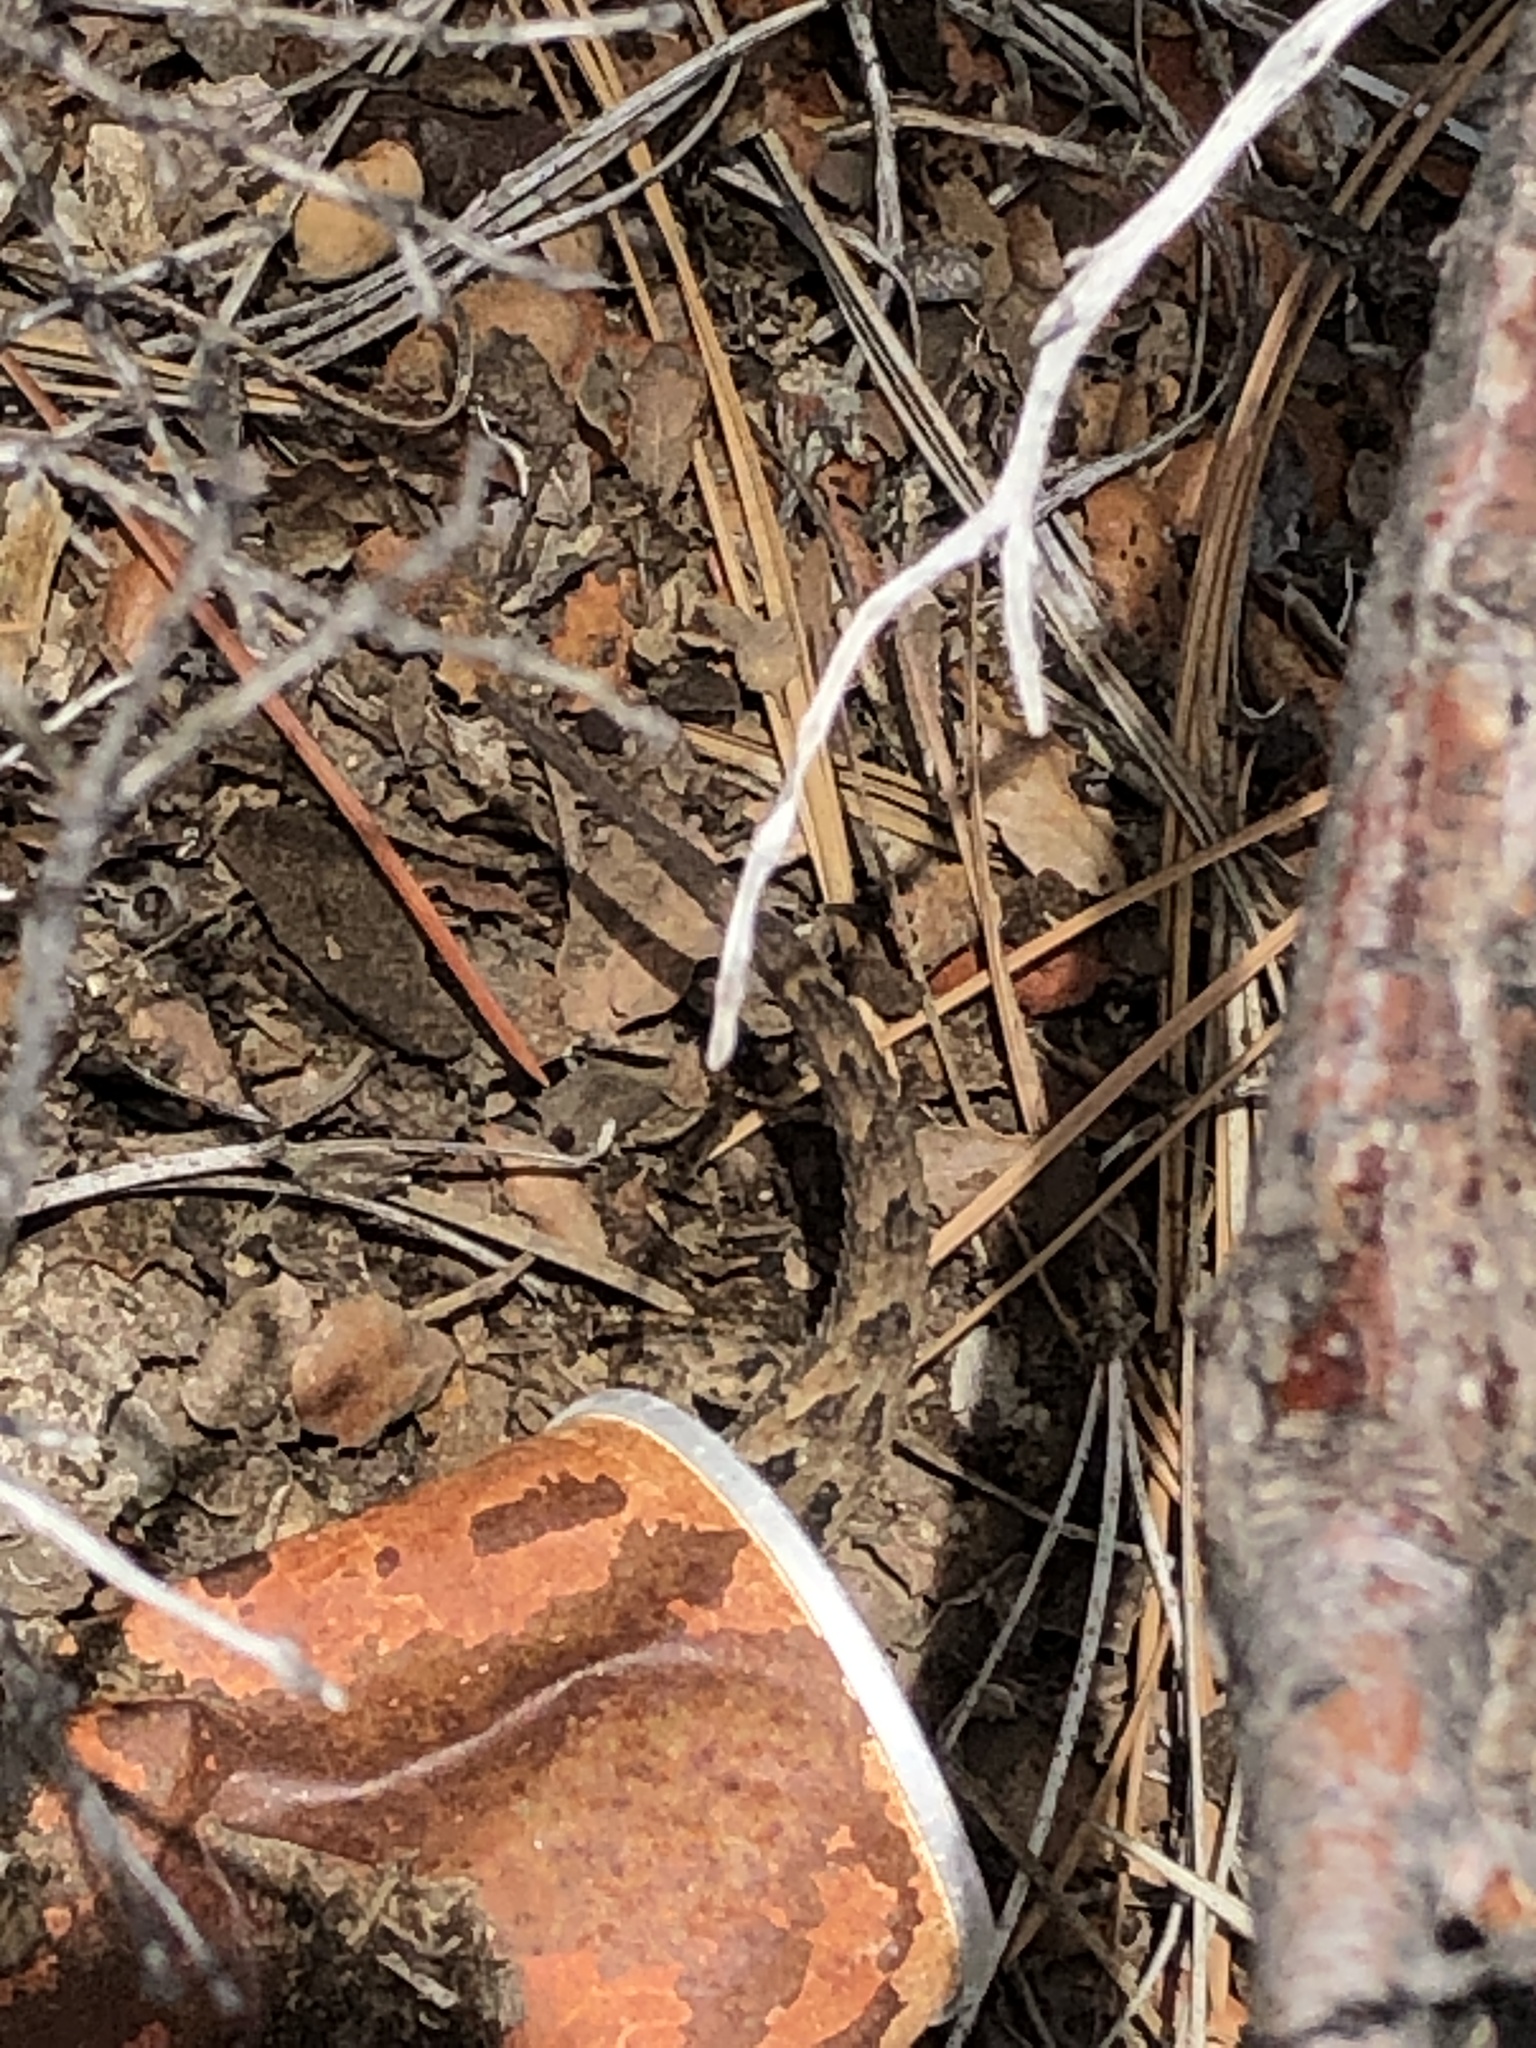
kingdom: Animalia
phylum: Chordata
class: Squamata
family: Phrynosomatidae
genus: Sceloporus
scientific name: Sceloporus
